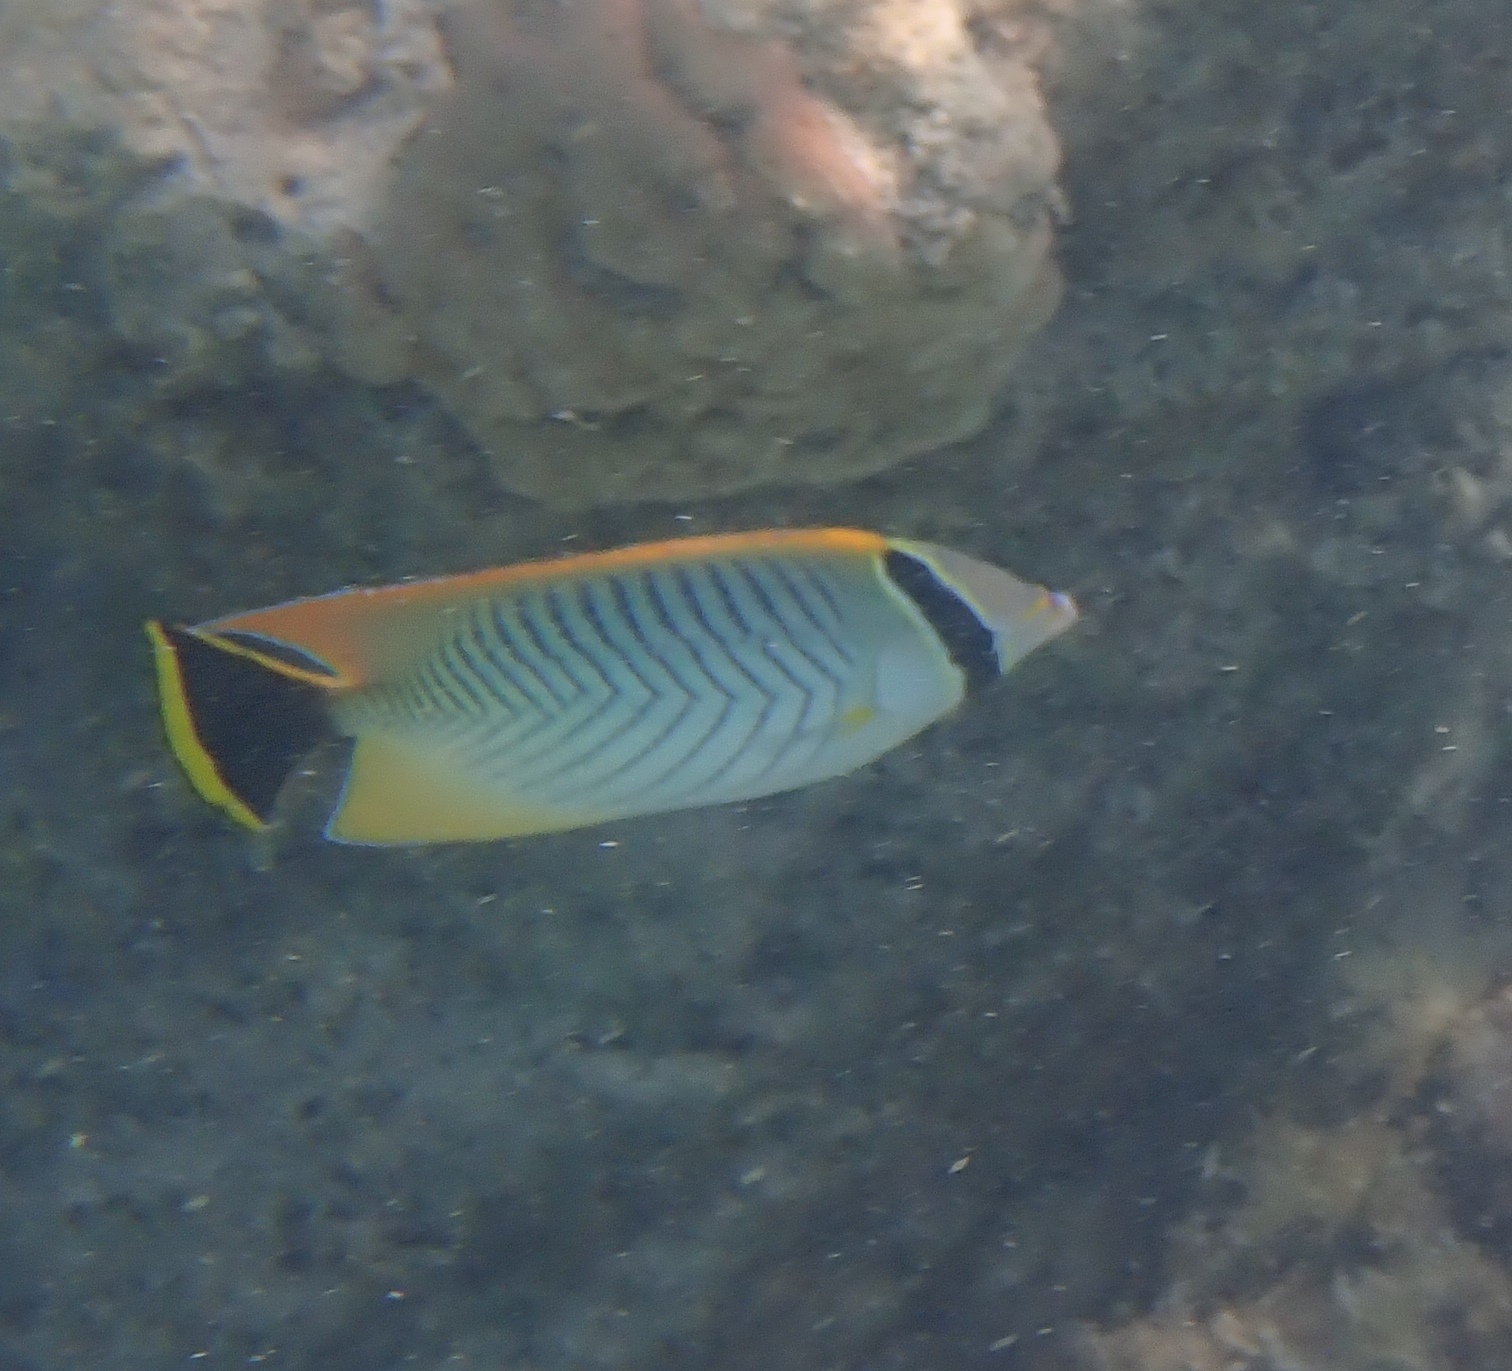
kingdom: Animalia
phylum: Chordata
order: Perciformes
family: Chaetodontidae
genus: Chaetodon
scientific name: Chaetodon trifascialis
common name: Chevroned butterflyfish
